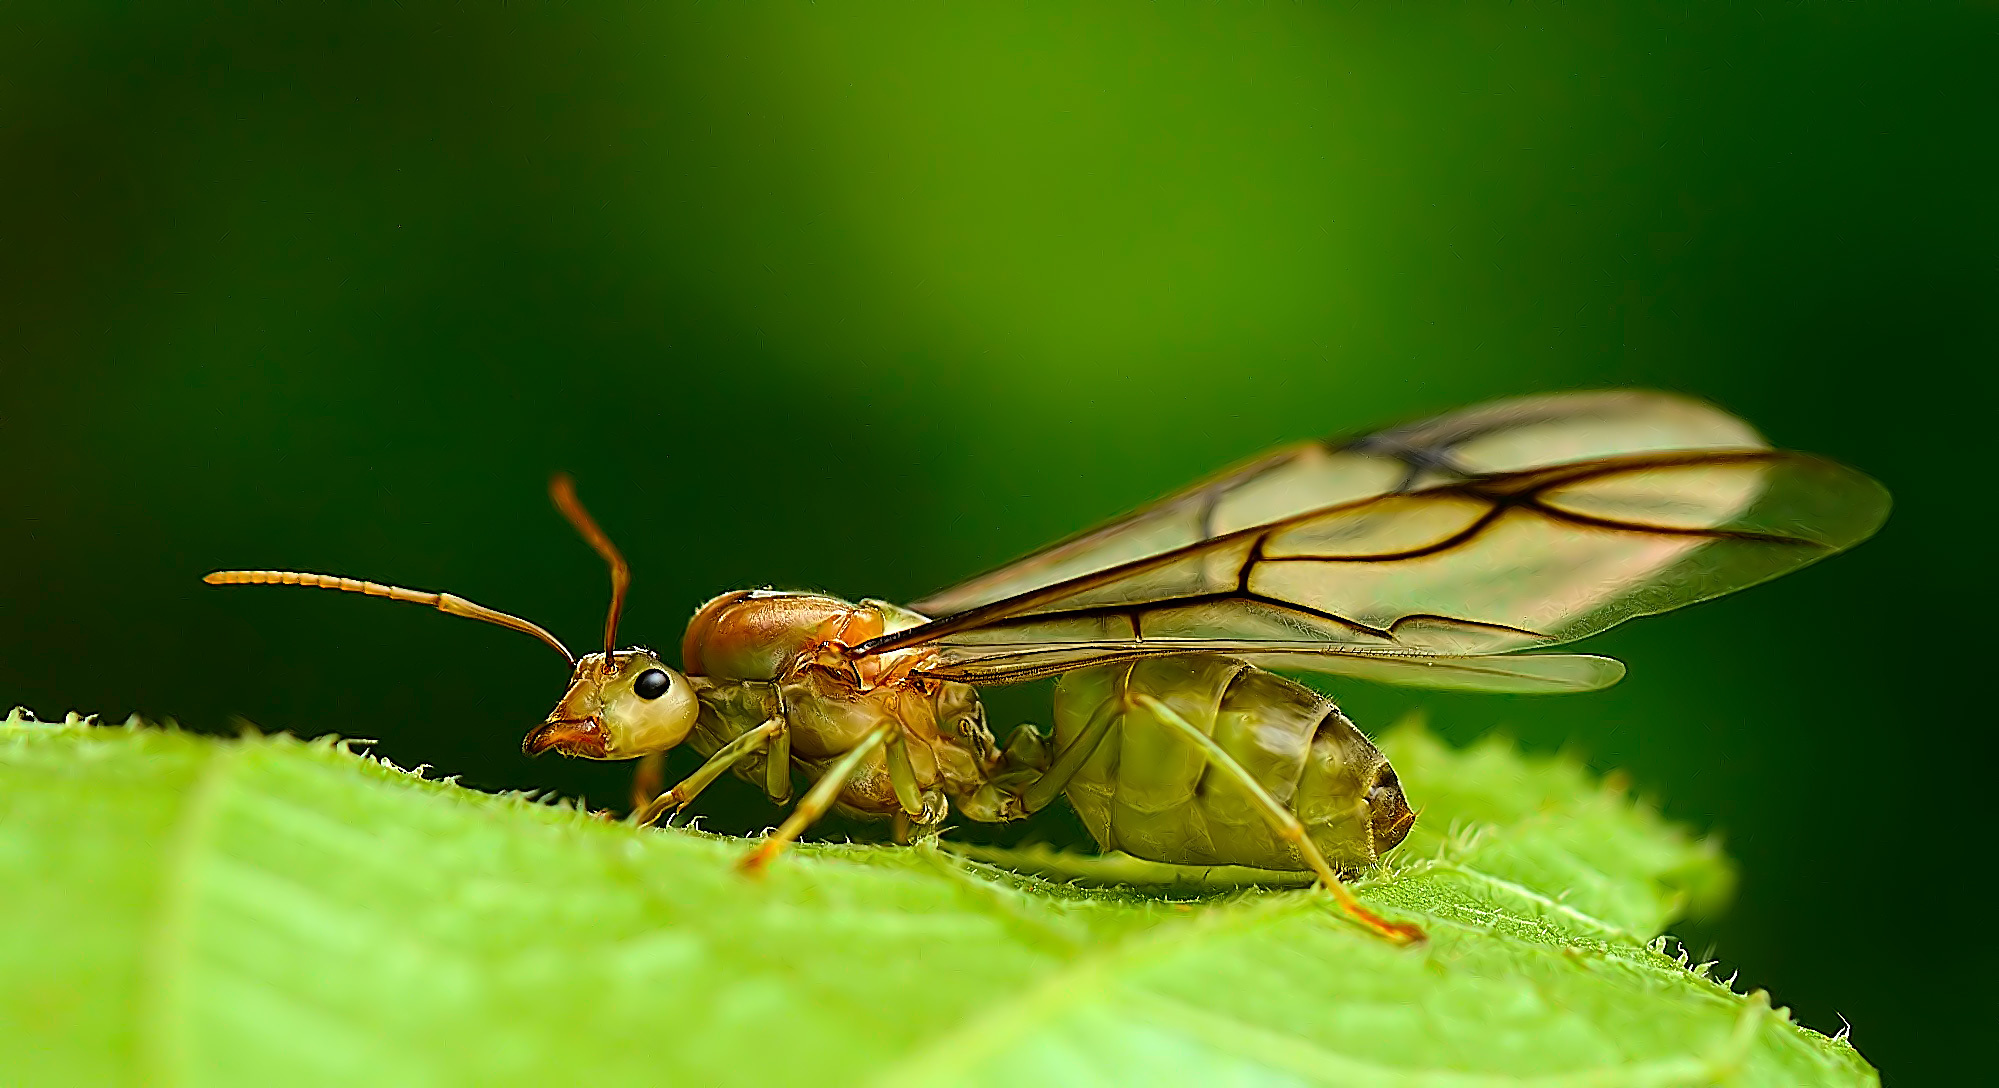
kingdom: Animalia
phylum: Arthropoda
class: Insecta
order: Hymenoptera
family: Formicidae
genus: Oecophylla
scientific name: Oecophylla smaragdina
